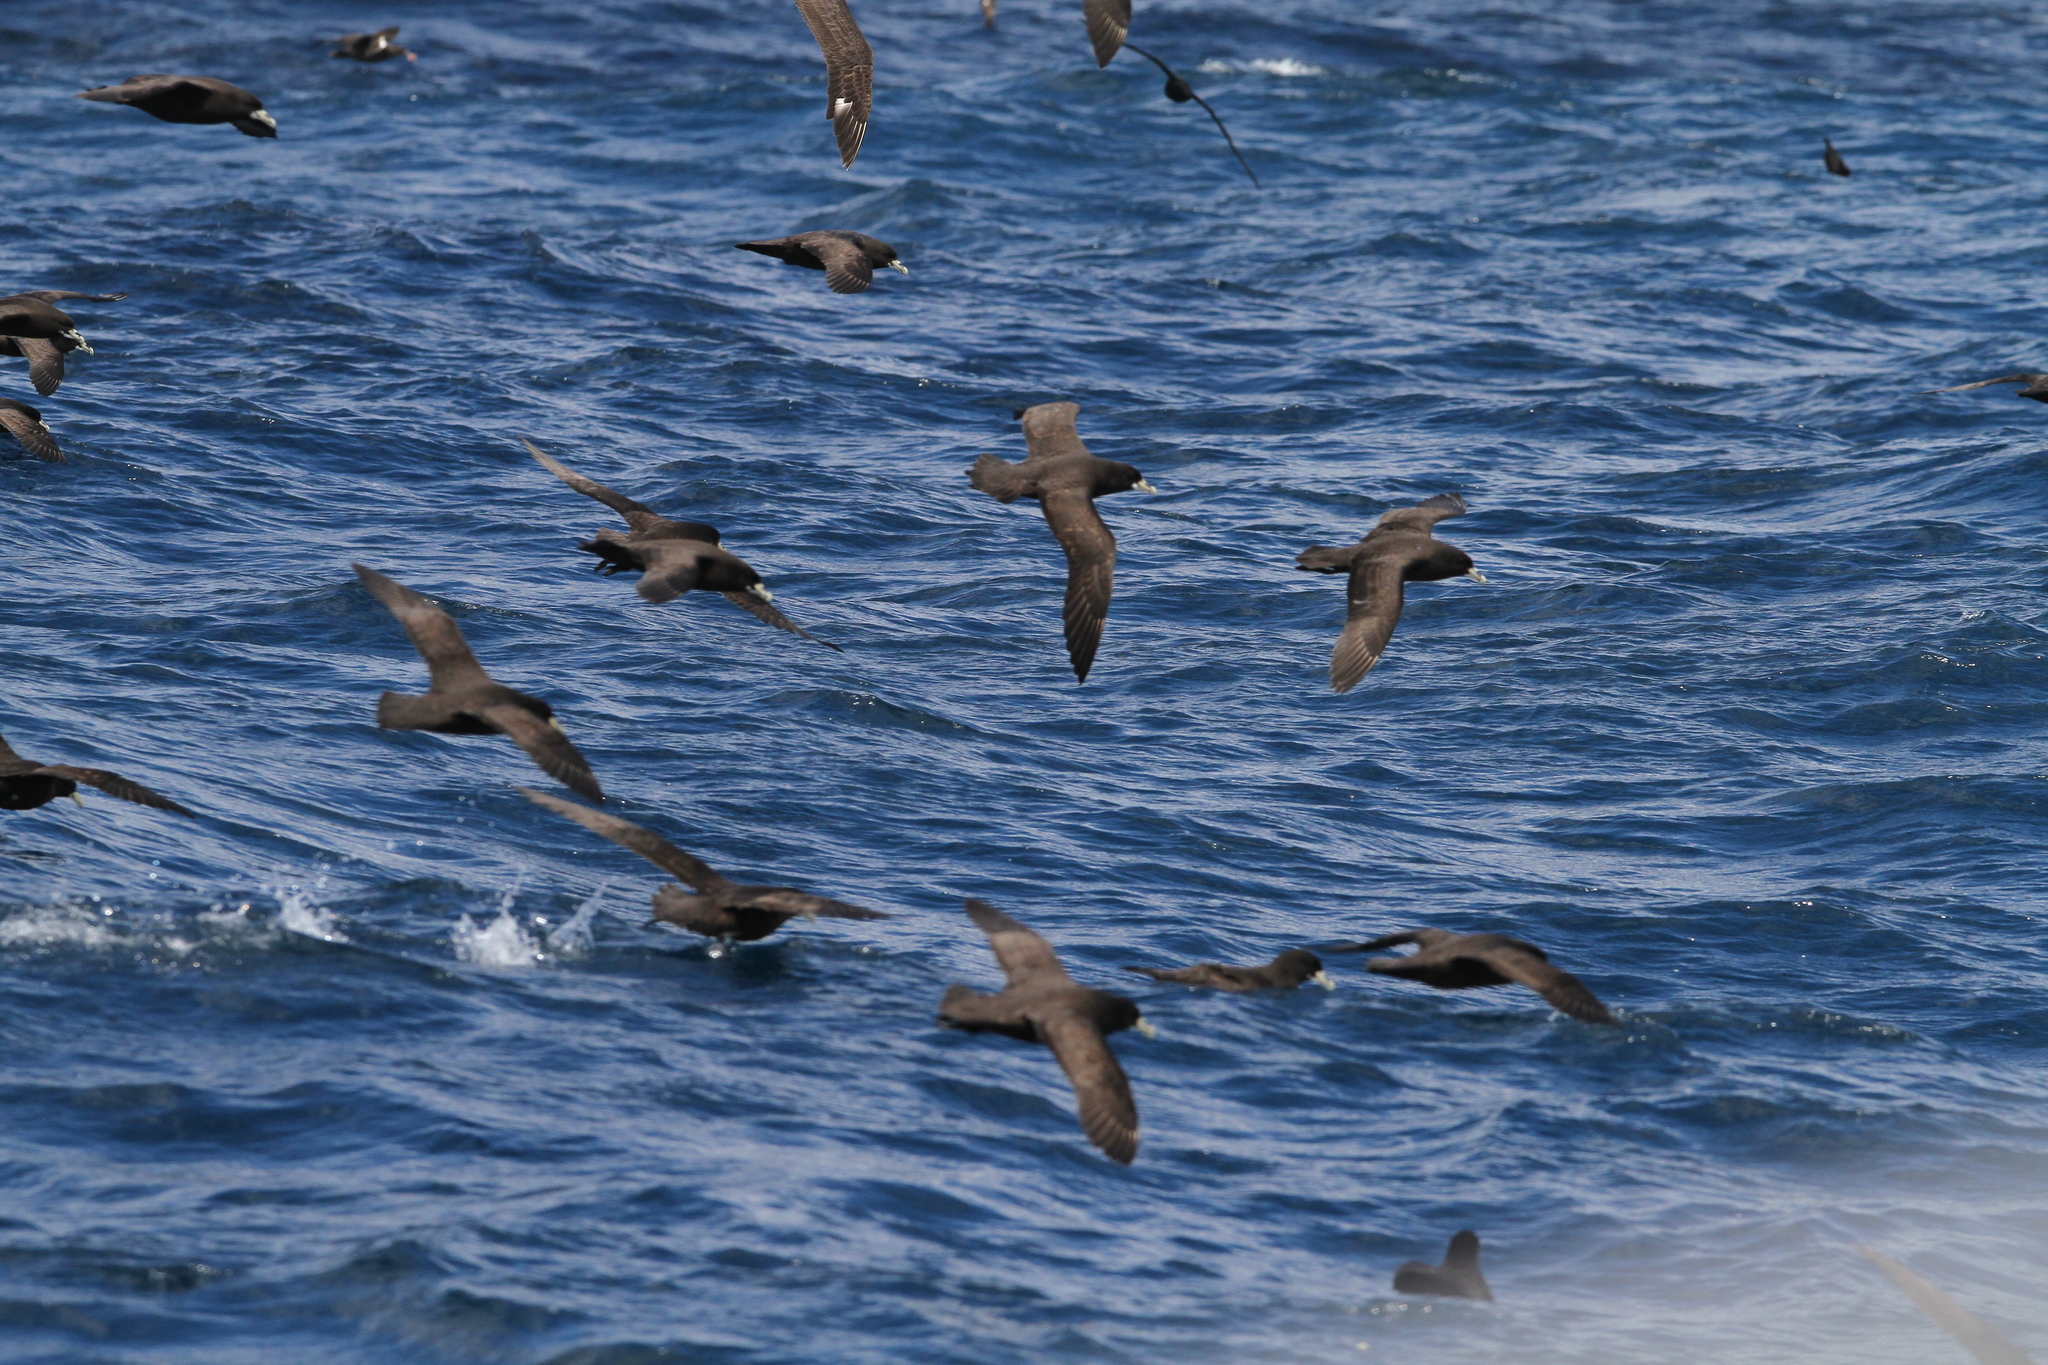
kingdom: Animalia
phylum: Chordata
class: Aves
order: Procellariiformes
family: Procellariidae
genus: Procellaria
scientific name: Procellaria aequinoctialis
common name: White-chinned petrel
